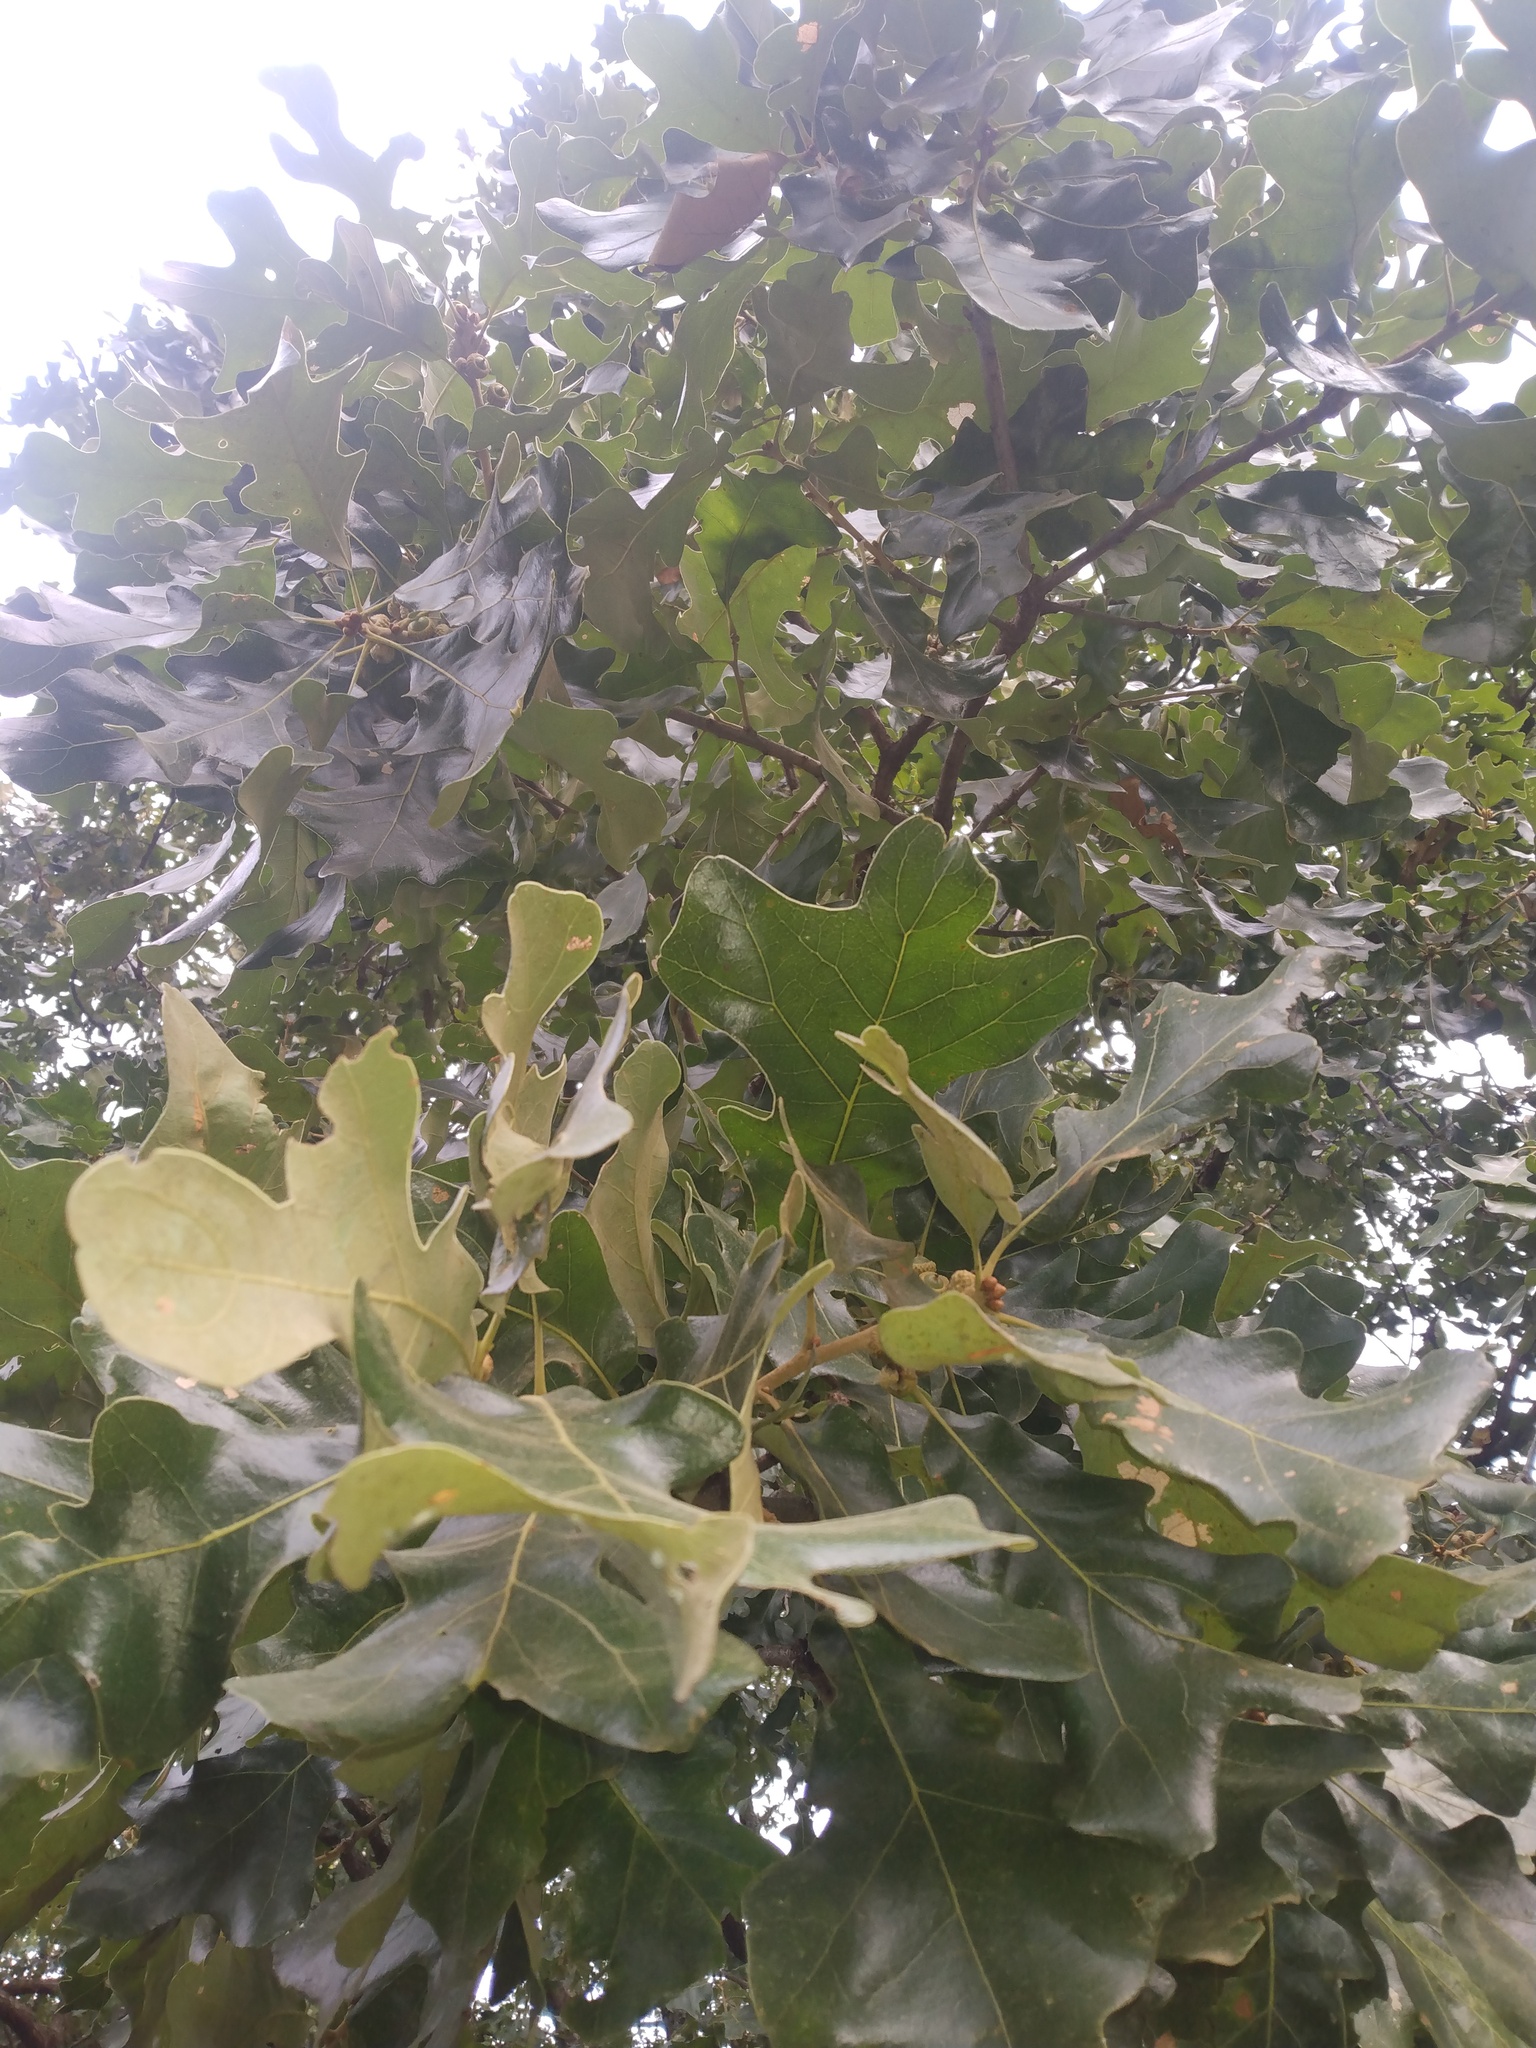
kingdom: Plantae
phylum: Tracheophyta
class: Magnoliopsida
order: Fagales
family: Fagaceae
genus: Quercus
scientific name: Quercus stellata
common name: Post oak
